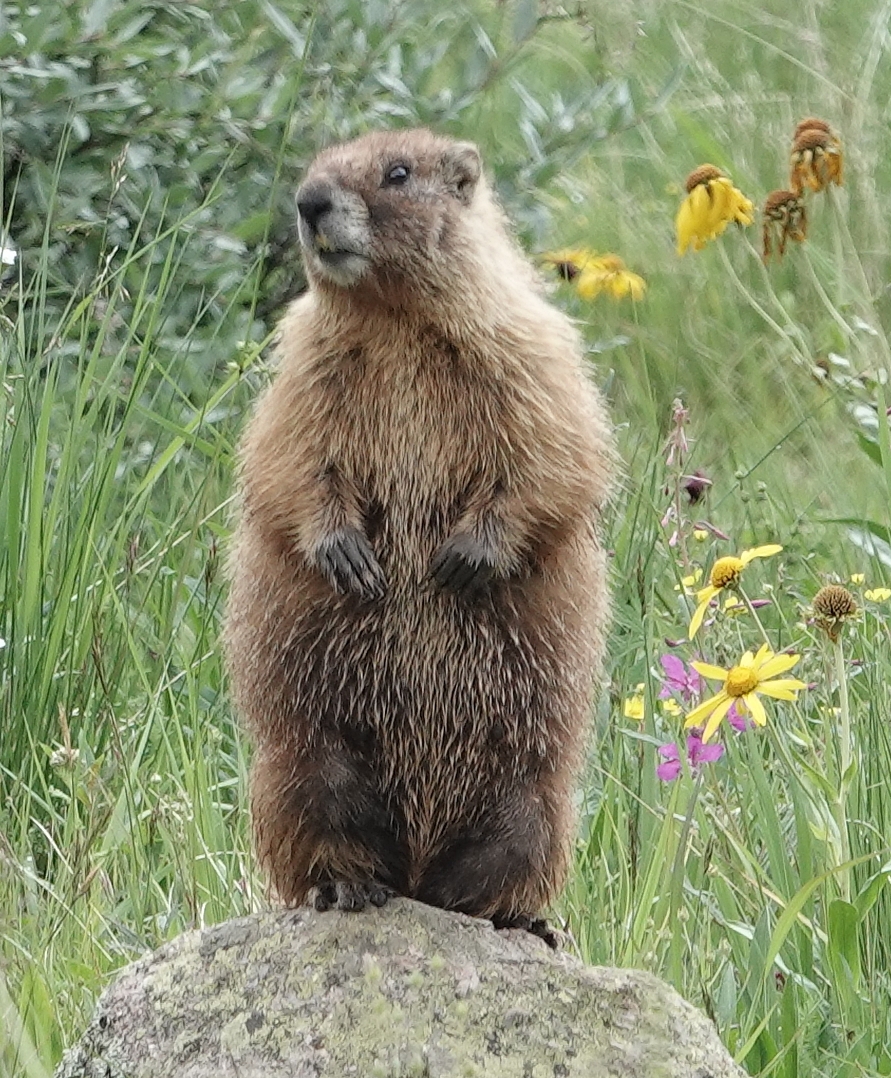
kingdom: Animalia
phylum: Chordata
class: Mammalia
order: Rodentia
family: Sciuridae
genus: Marmota
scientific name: Marmota flaviventris
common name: Yellow-bellied marmot
